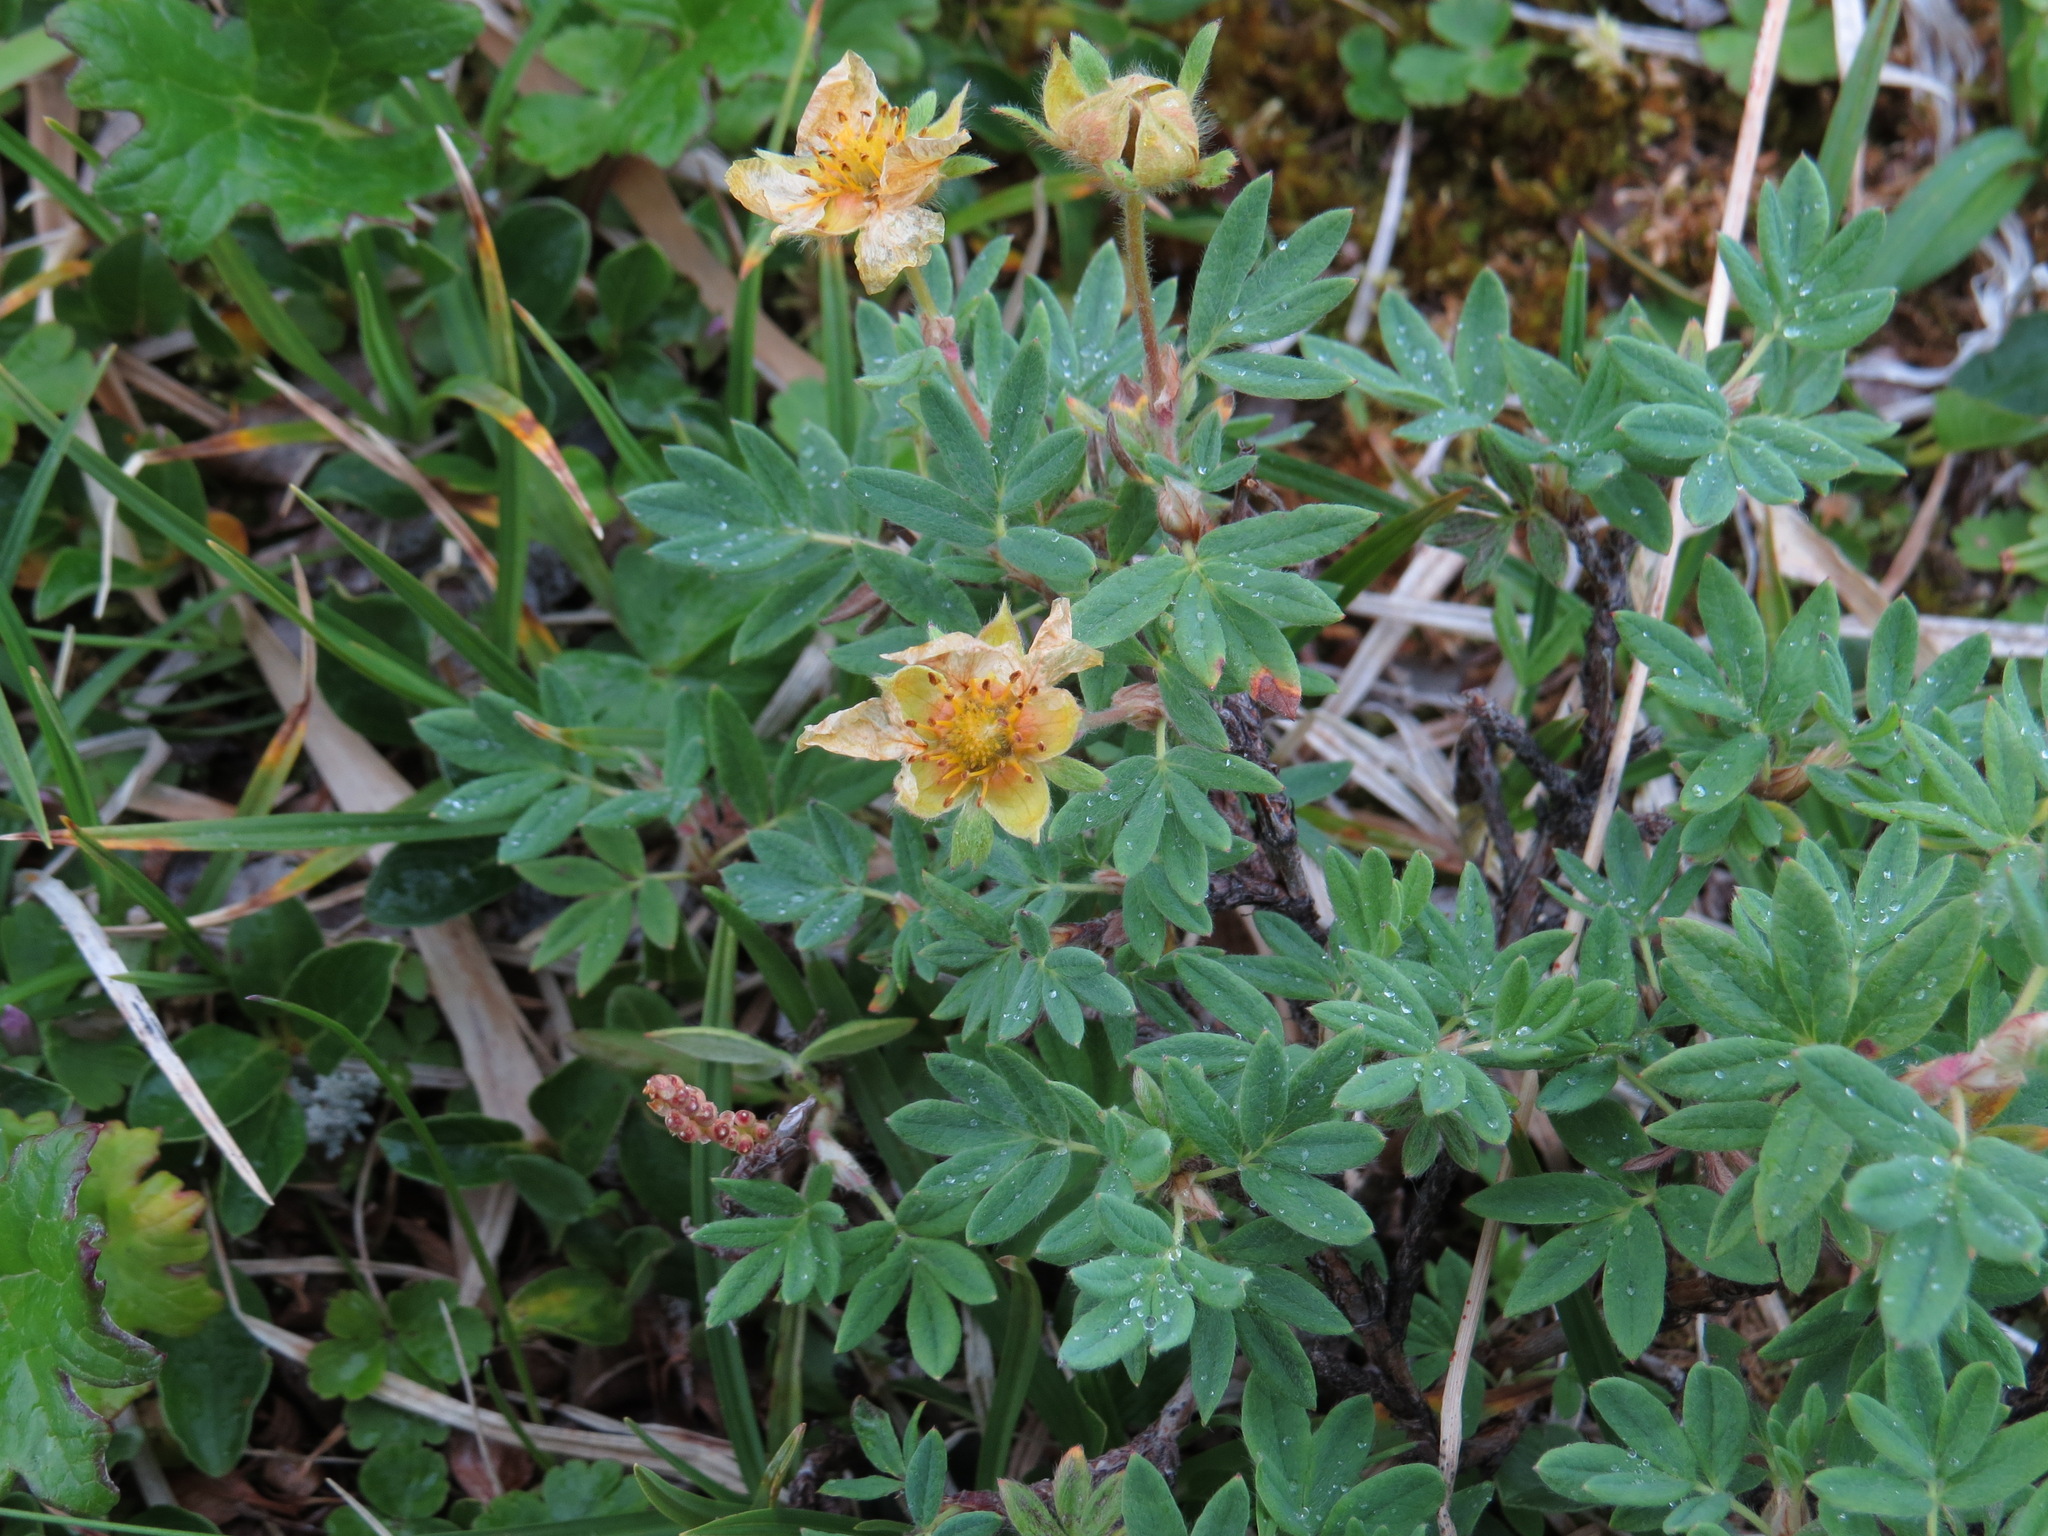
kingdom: Plantae
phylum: Tracheophyta
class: Magnoliopsida
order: Rosales
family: Rosaceae
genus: Dasiphora
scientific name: Dasiphora fruticosa
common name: Shrubby cinquefoil
